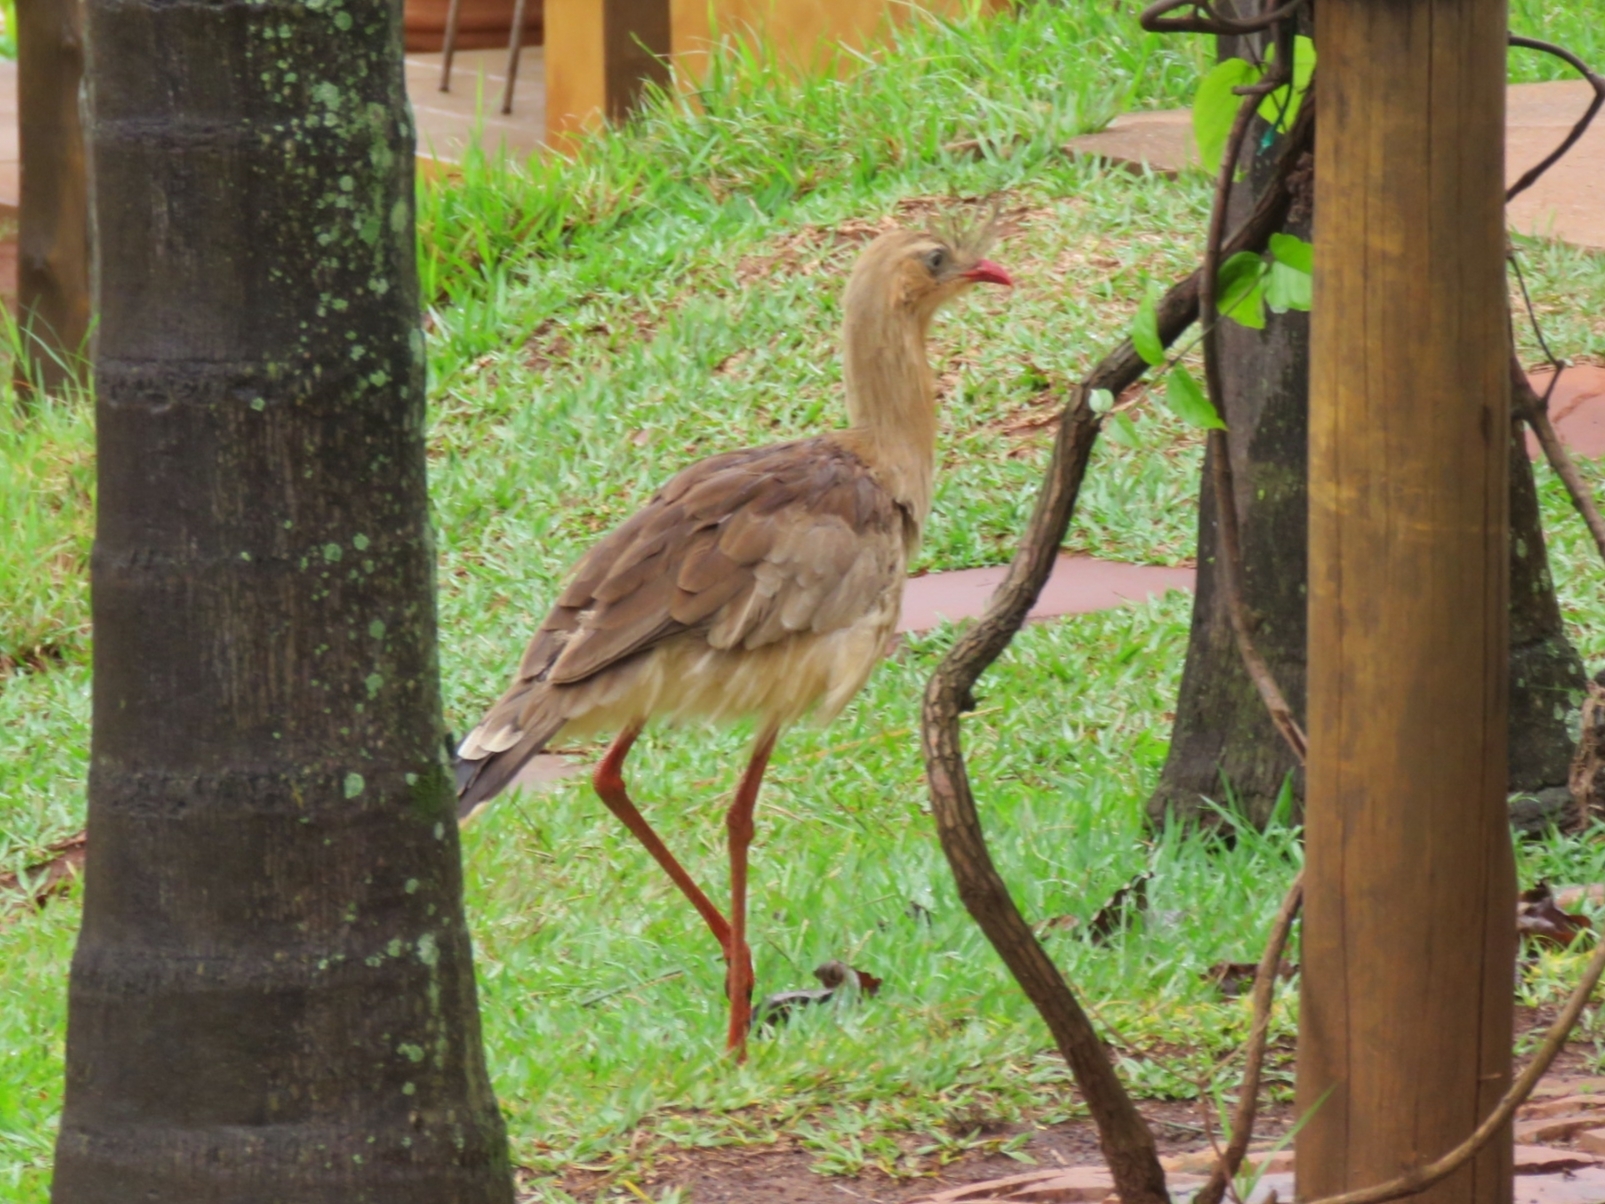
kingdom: Animalia
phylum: Chordata
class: Aves
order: Cariamiformes
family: Cariamidae
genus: Cariama
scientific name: Cariama cristata
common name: Red-legged seriema
